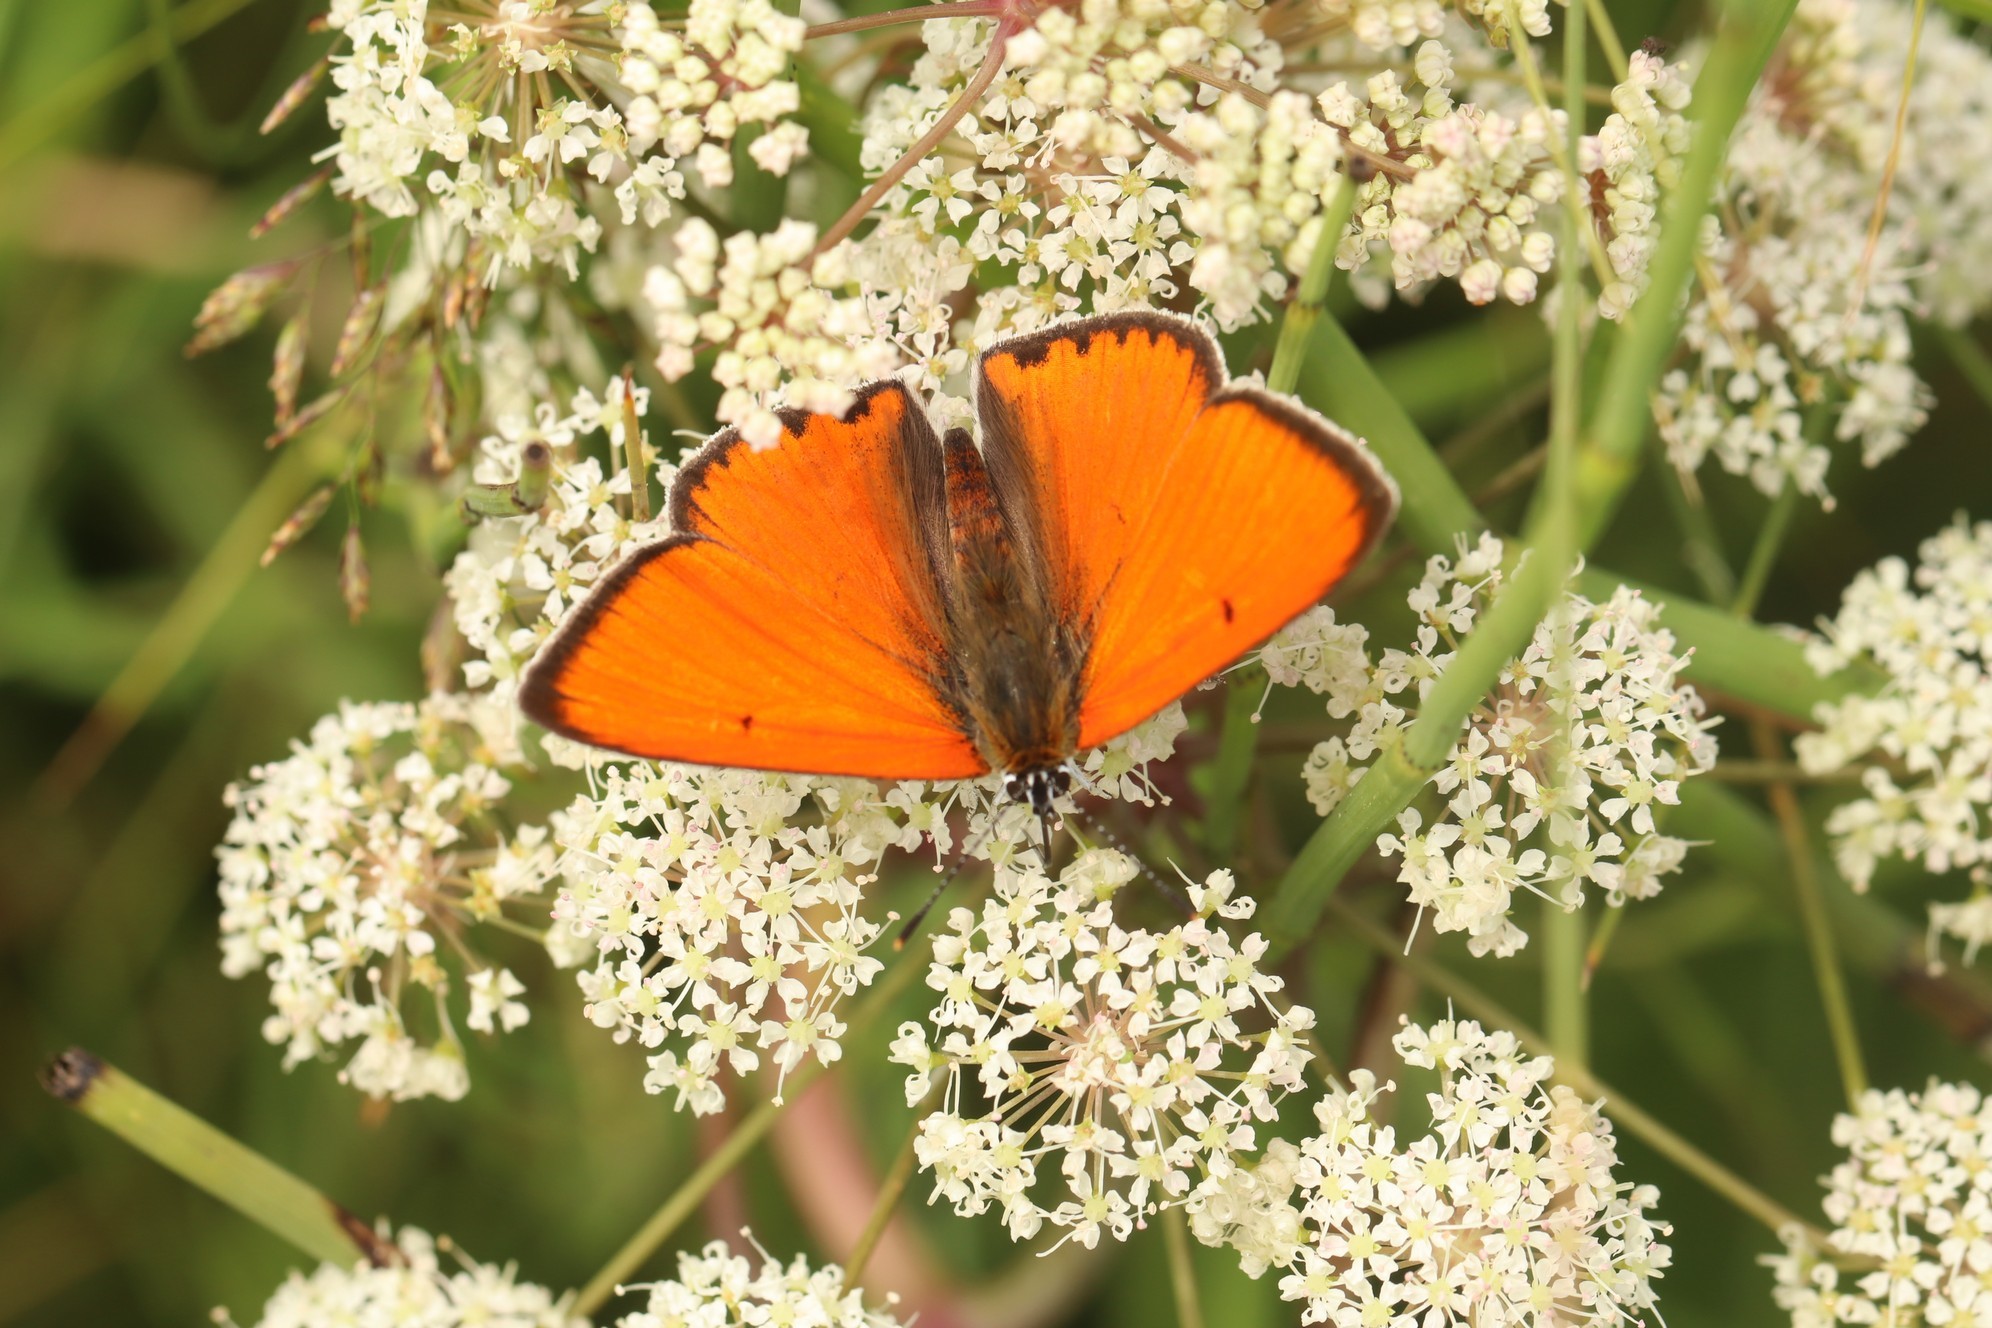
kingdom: Animalia
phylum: Arthropoda
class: Insecta
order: Lepidoptera
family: Lycaenidae
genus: Lycaena
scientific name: Lycaena dispar
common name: Large copper
